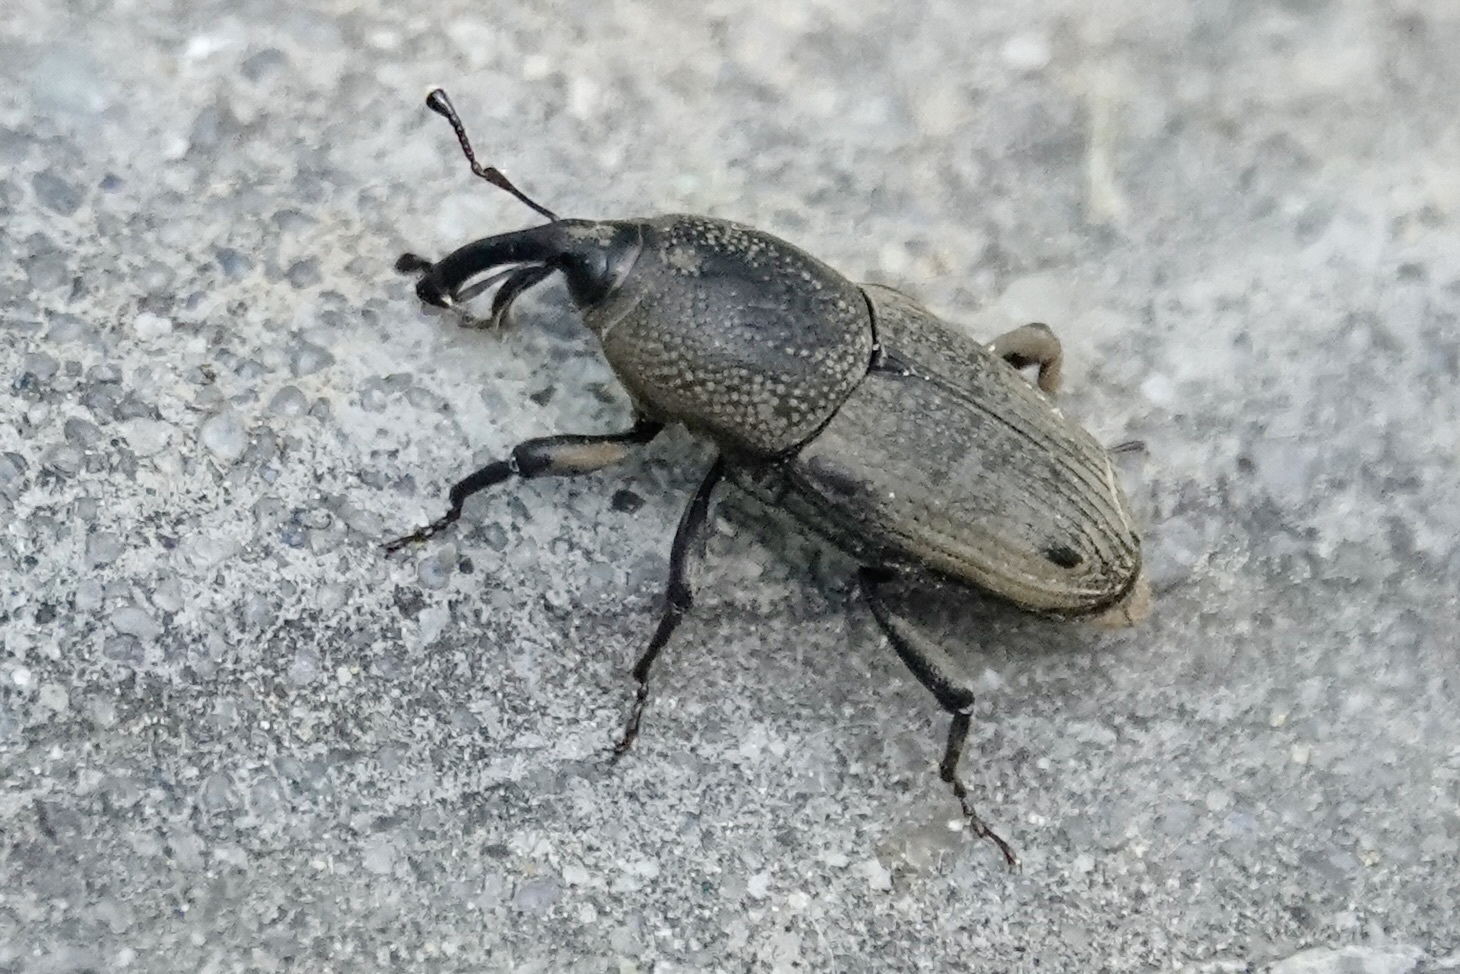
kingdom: Animalia
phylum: Arthropoda
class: Insecta
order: Coleoptera
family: Dryophthoridae
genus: Sphenophorus
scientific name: Sphenophorus venatus
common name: Hunting billbug
